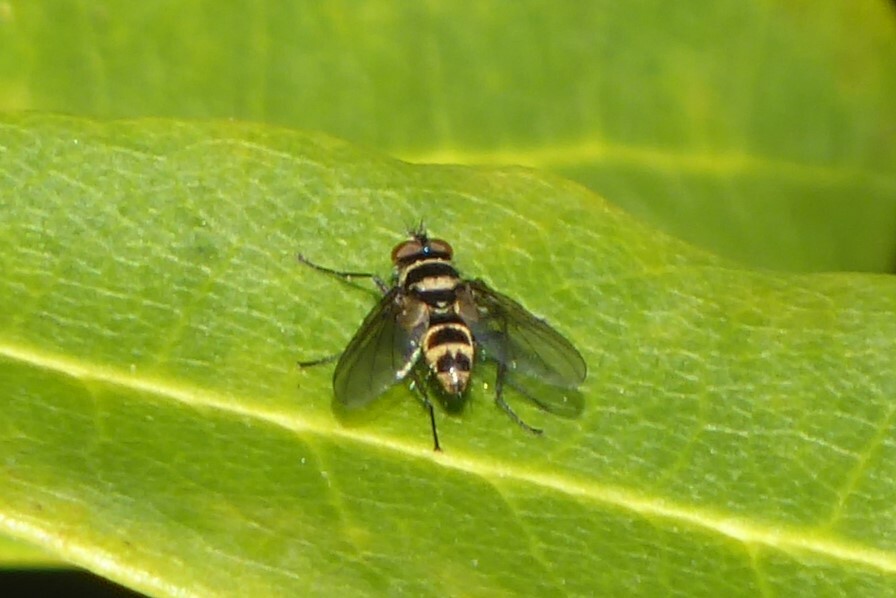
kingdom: Animalia
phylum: Arthropoda
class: Insecta
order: Diptera
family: Tachinidae
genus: Trigonospila
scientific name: Trigonospila brevifacies
